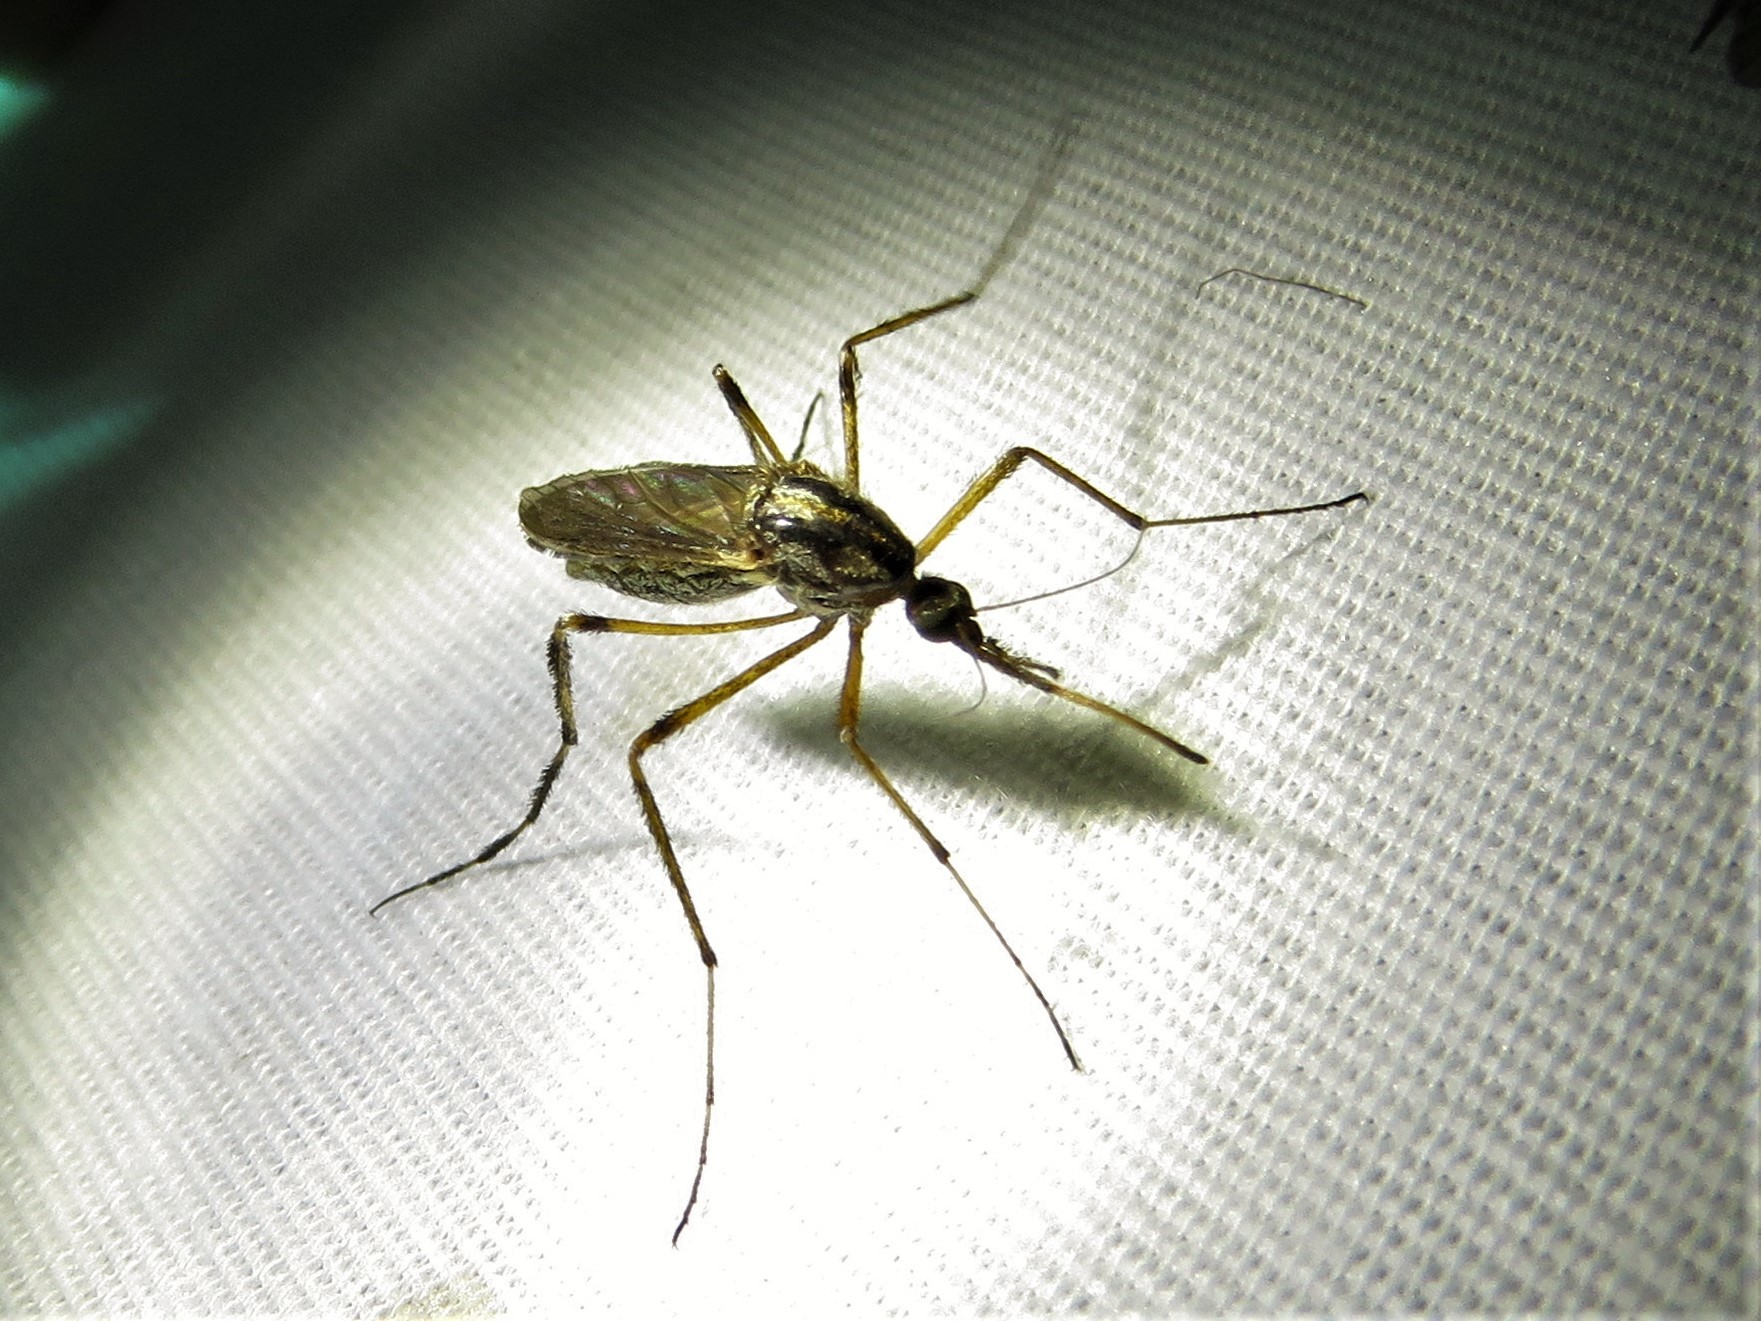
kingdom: Animalia
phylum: Arthropoda
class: Insecta
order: Diptera
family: Culicidae
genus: Psorophora
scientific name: Psorophora ciliata
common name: Gallinipper
